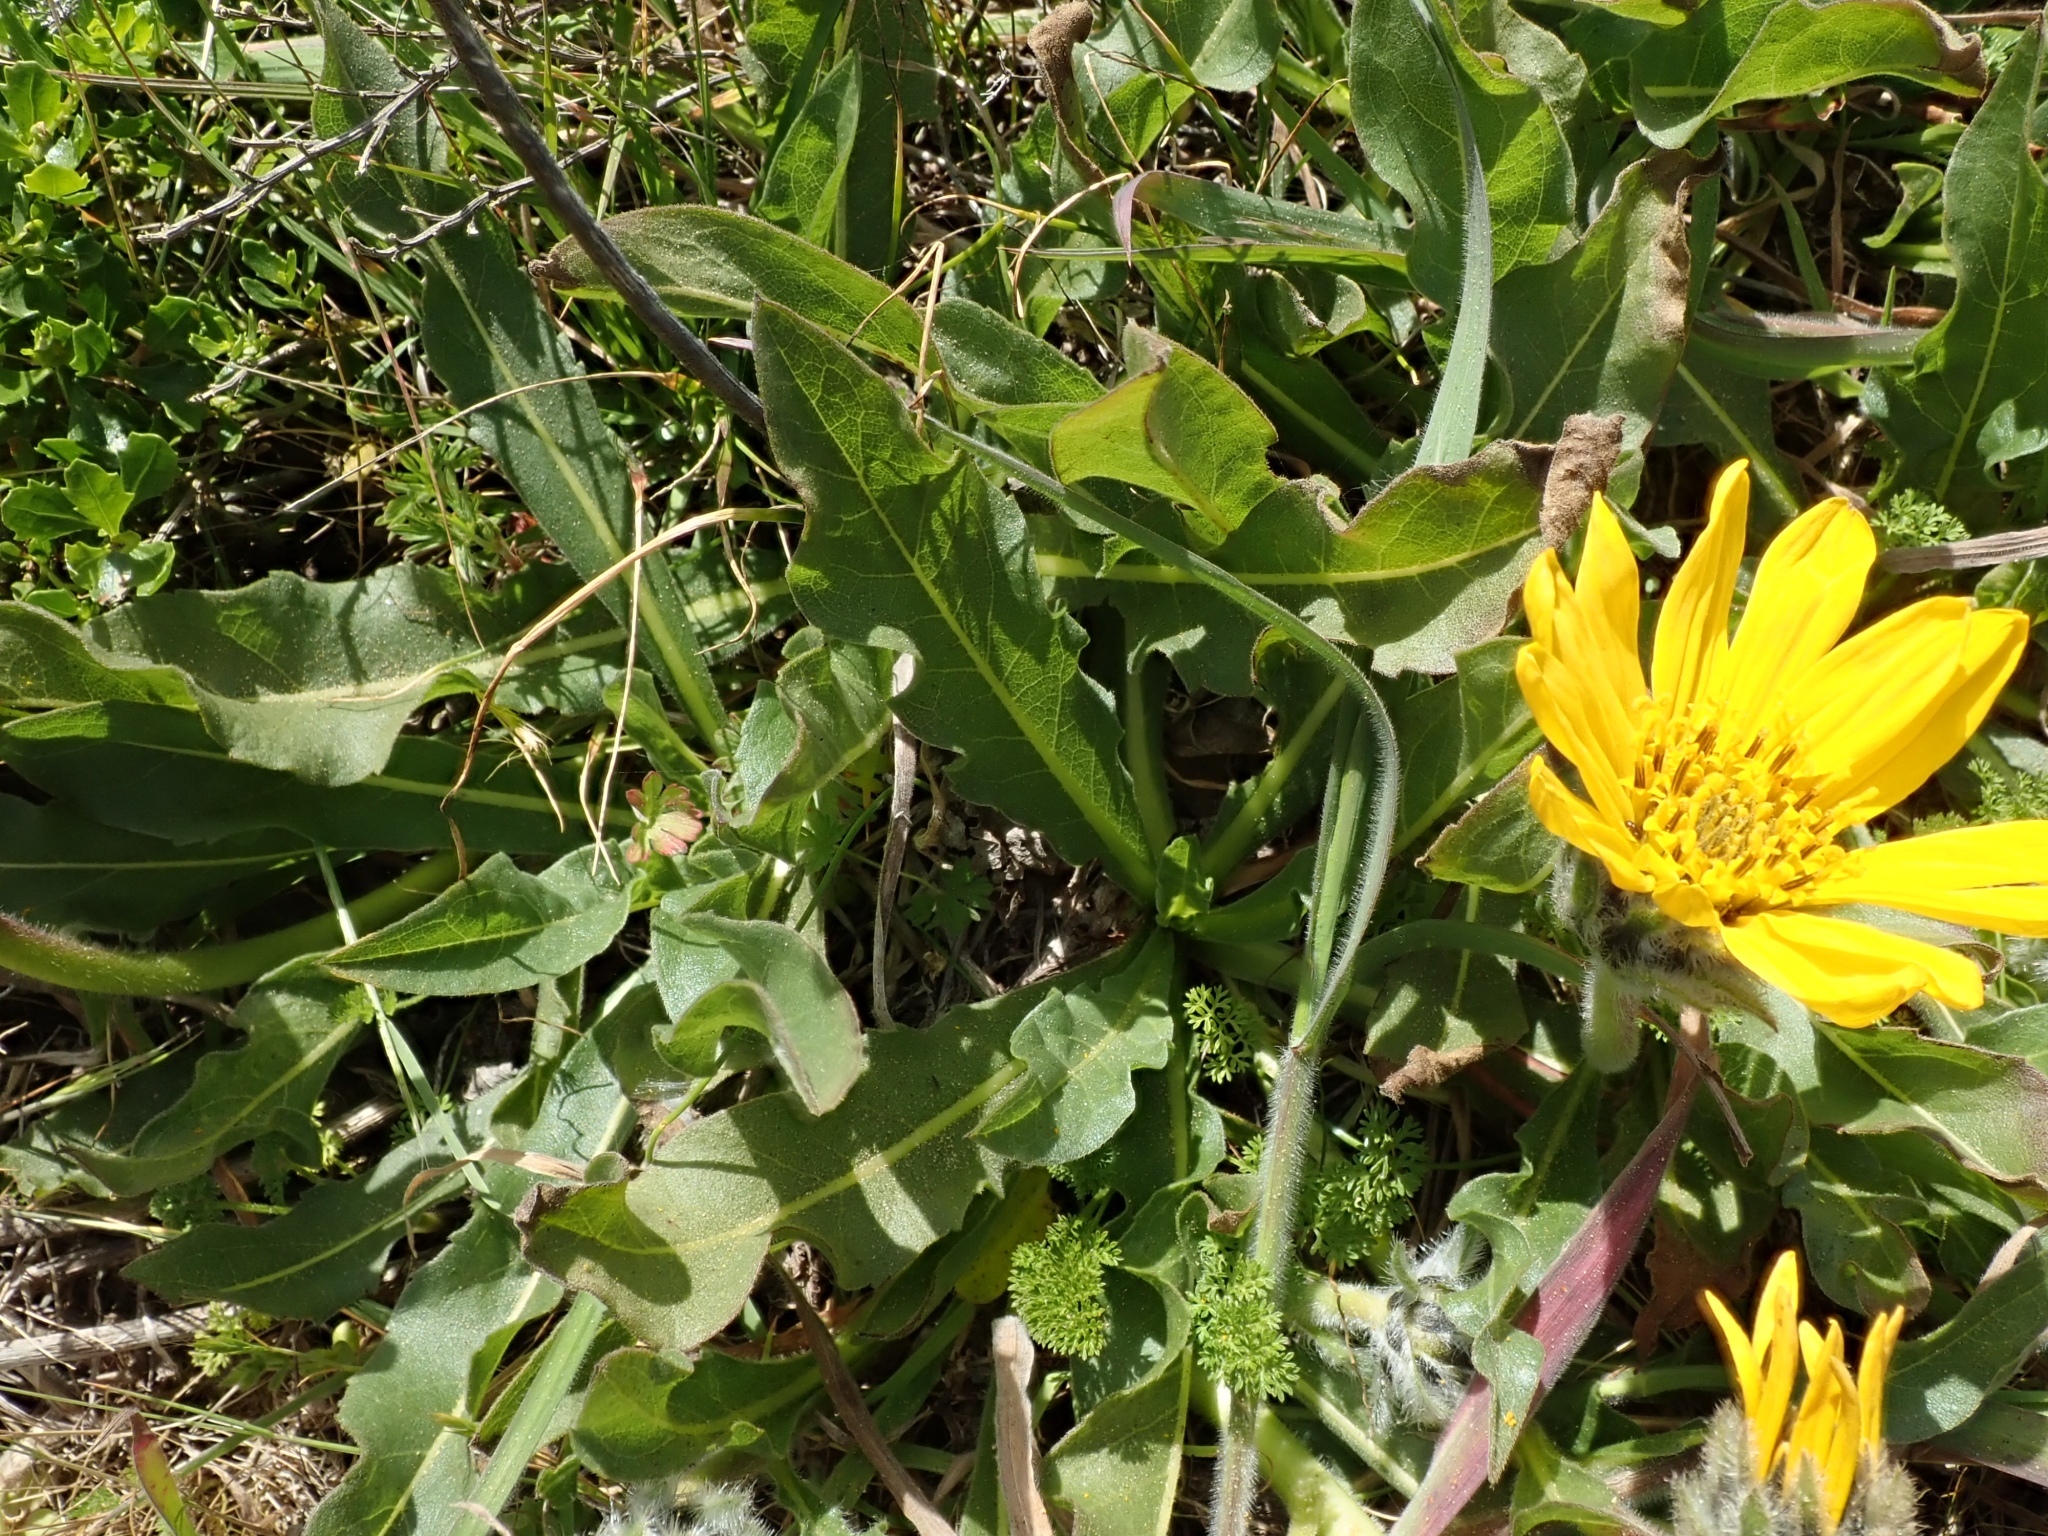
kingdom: Plantae
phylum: Tracheophyta
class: Magnoliopsida
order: Asterales
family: Asteraceae
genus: Wyethia
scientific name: Wyethia angustifolia
